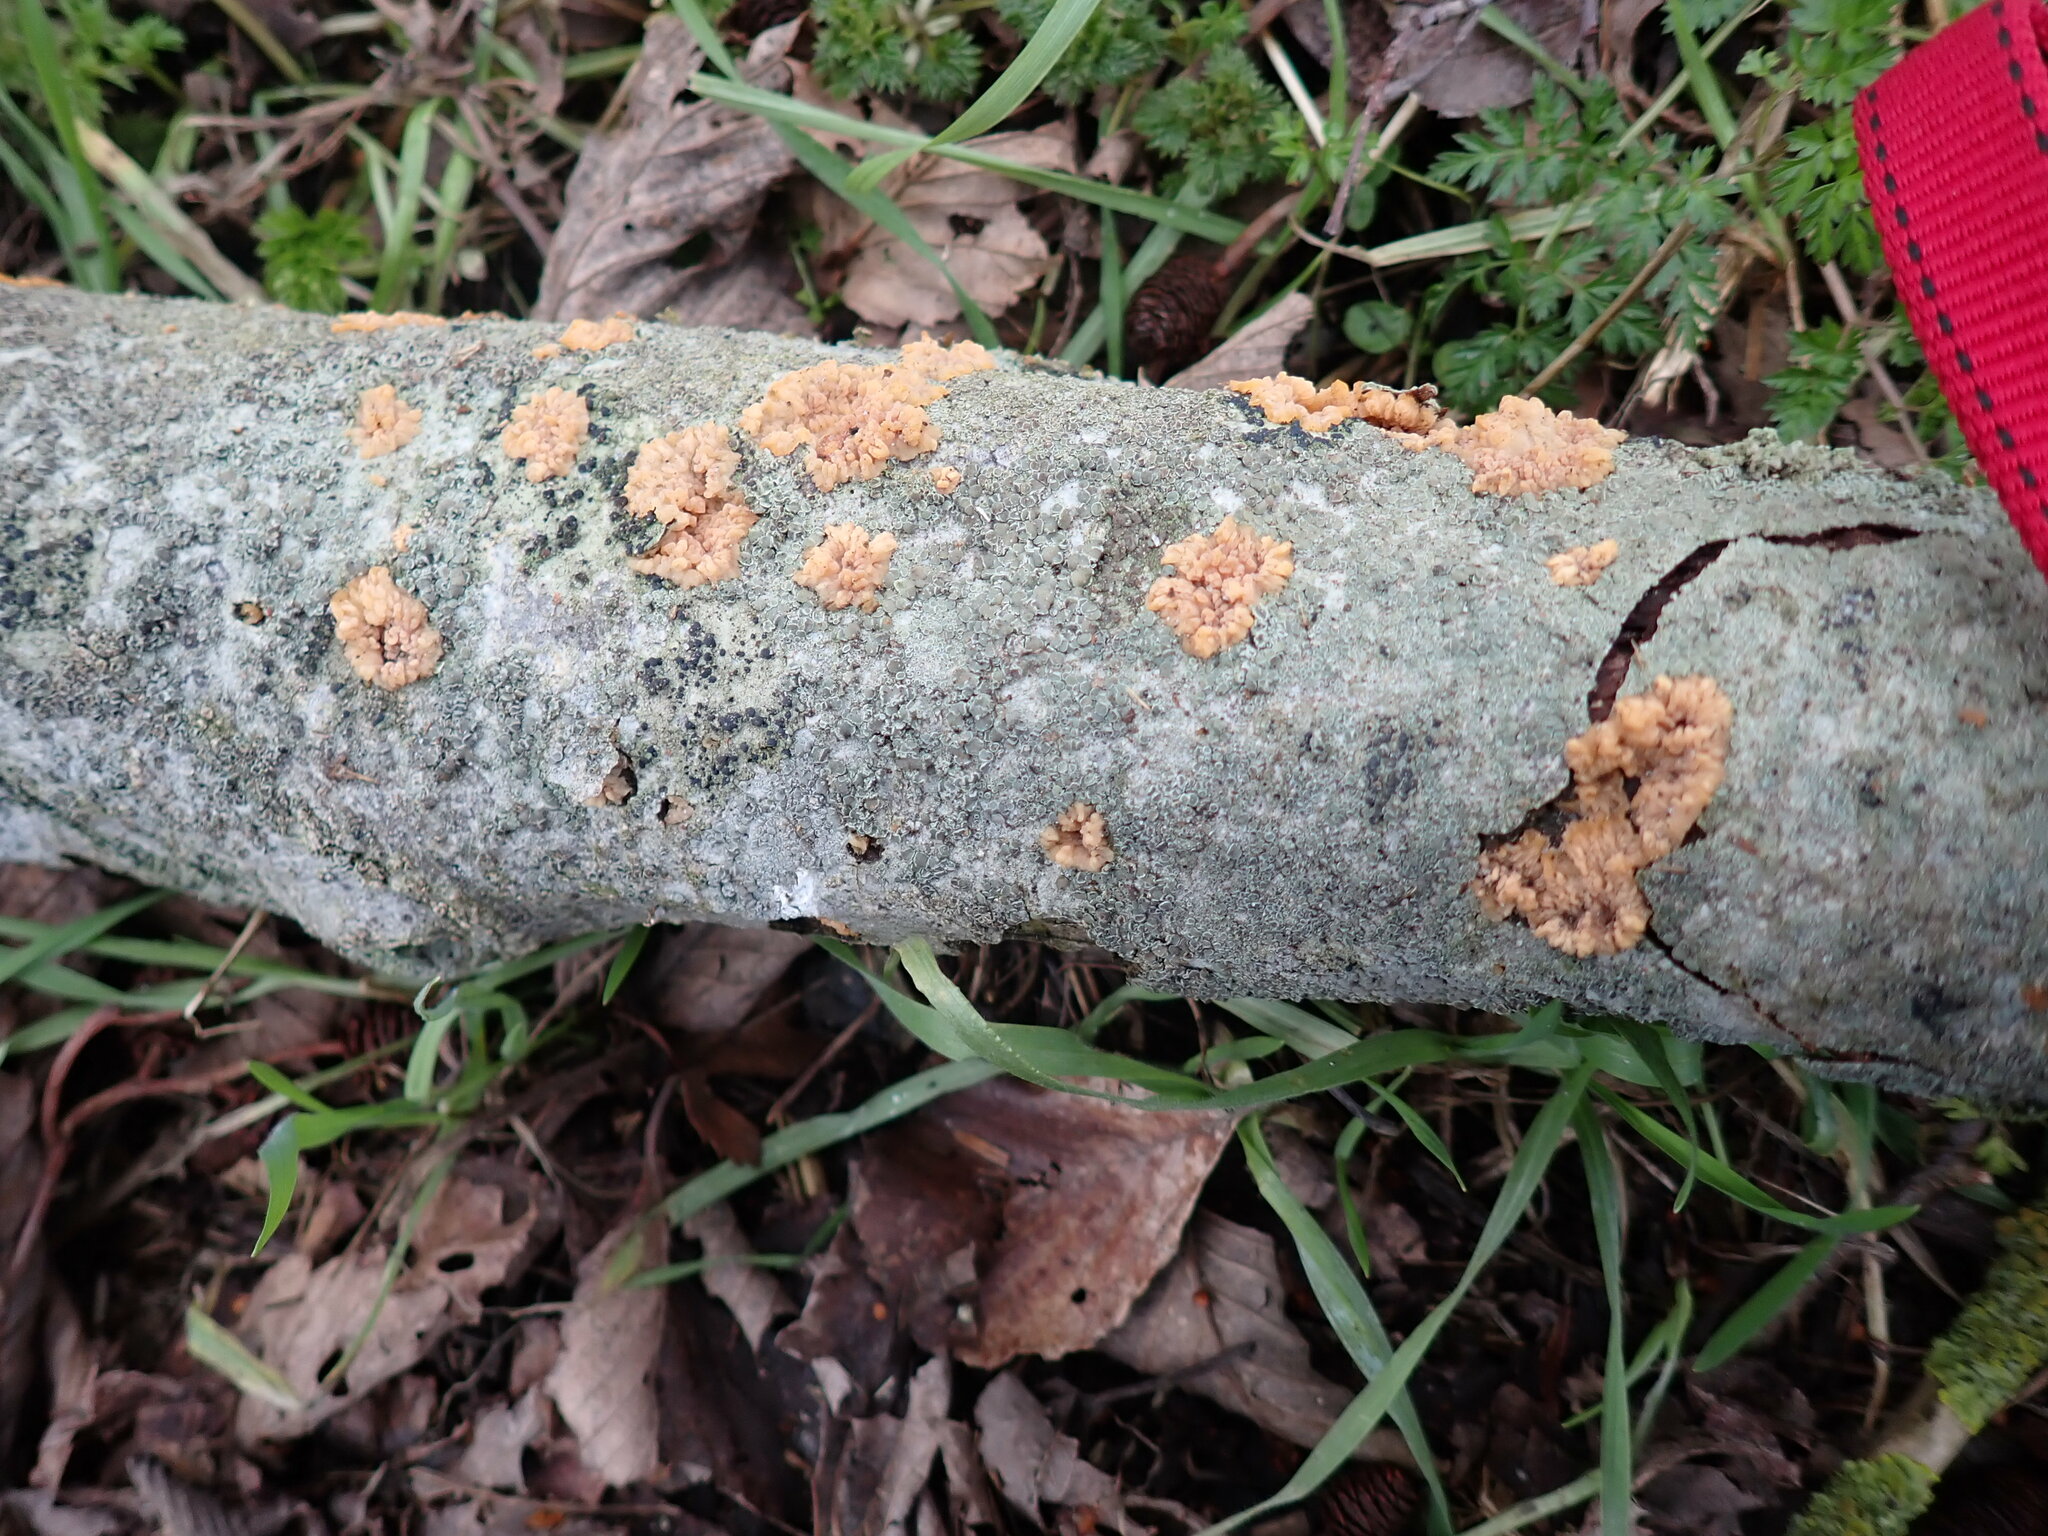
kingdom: Fungi
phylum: Basidiomycota
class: Agaricomycetes
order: Polyporales
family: Meruliaceae
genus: Phlebia
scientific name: Phlebia radiata
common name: Wrinkled crust
